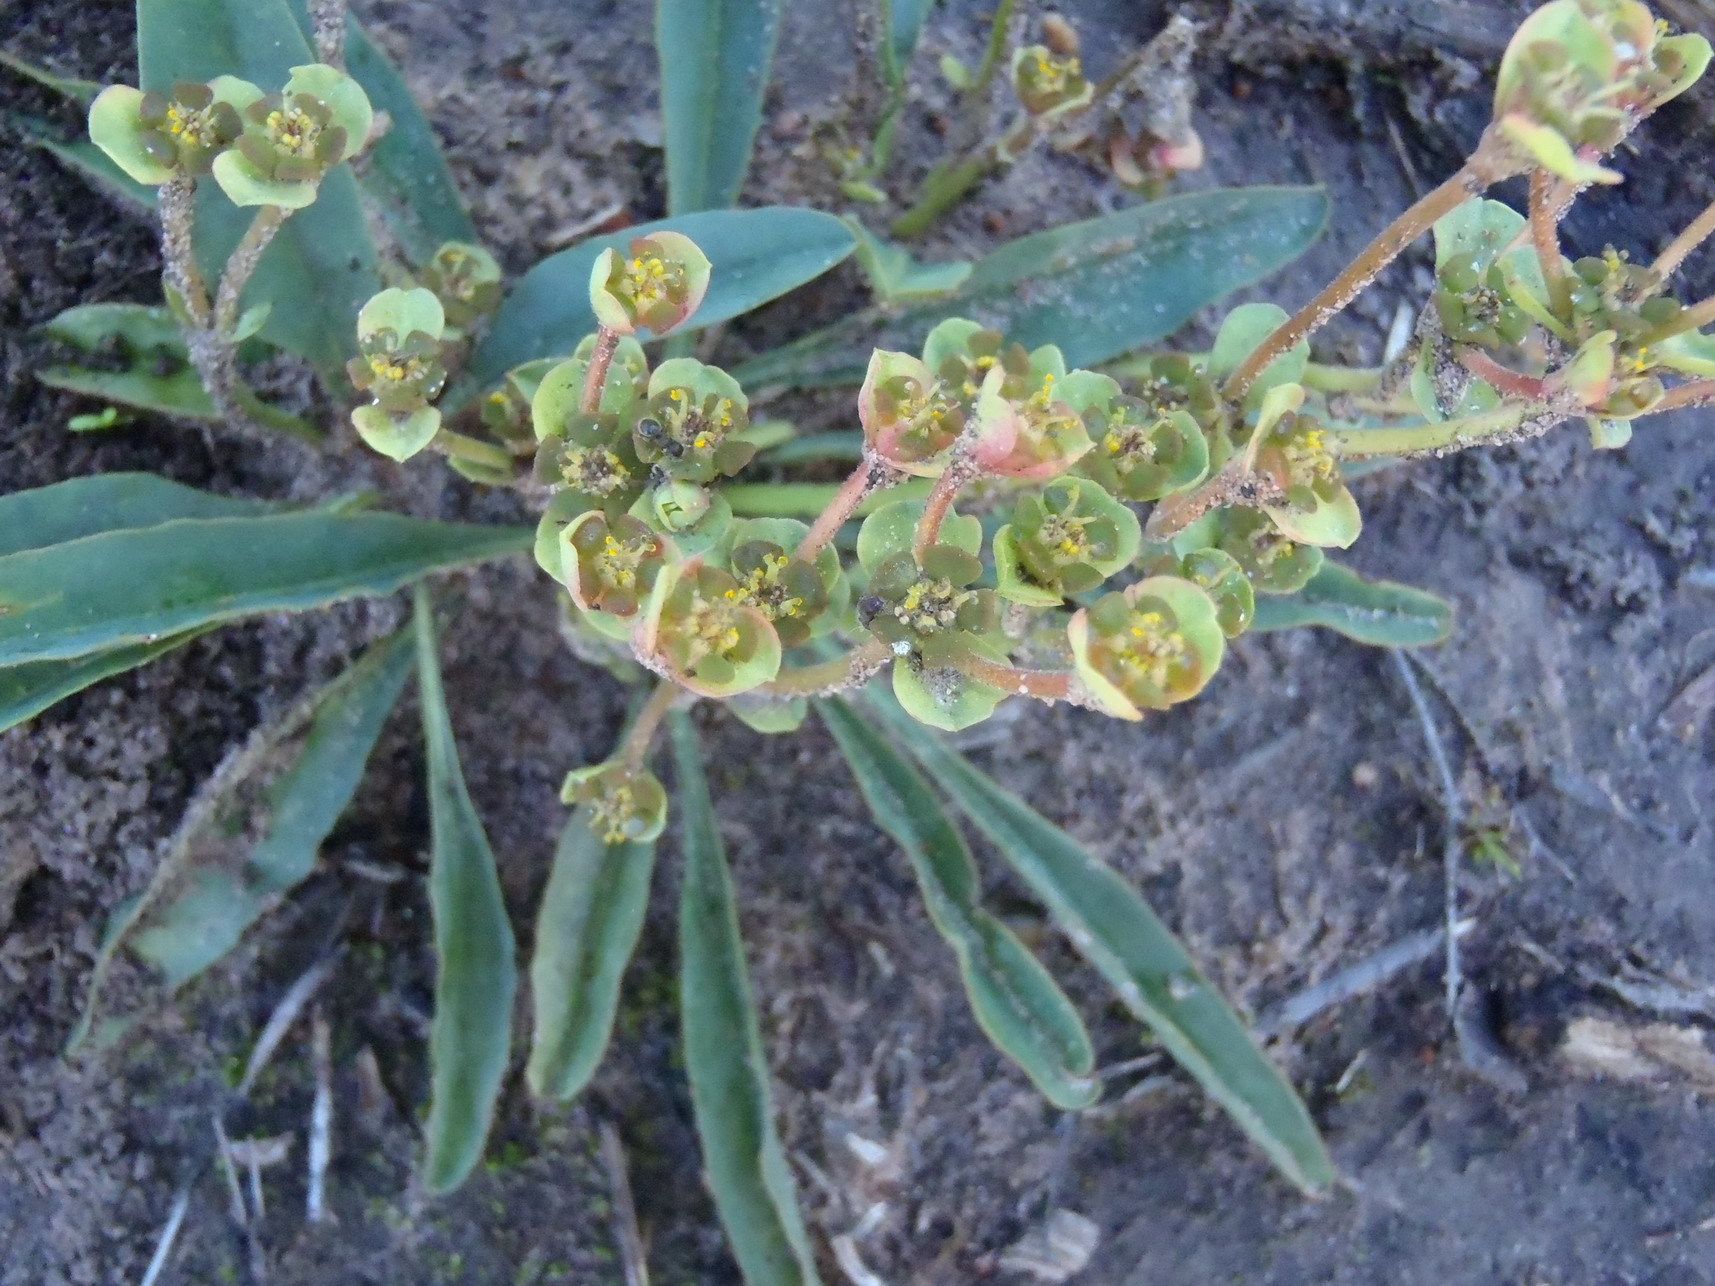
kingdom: Plantae
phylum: Tracheophyta
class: Magnoliopsida
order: Malpighiales
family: Euphorbiaceae
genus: Euphorbia
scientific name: Euphorbia silenifolia
